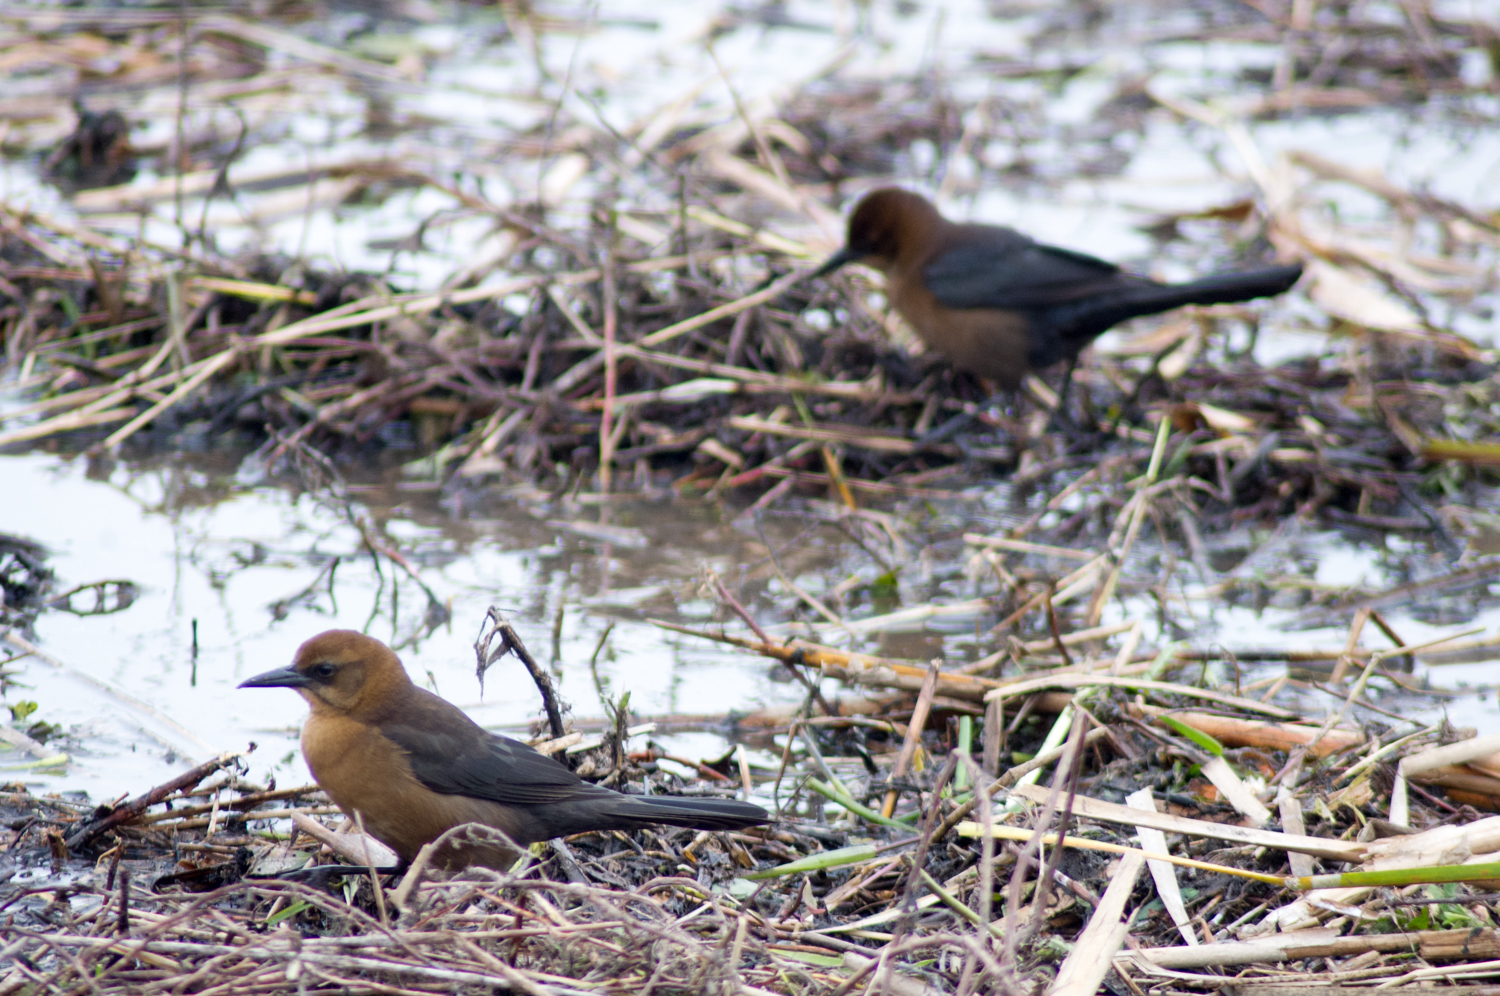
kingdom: Animalia
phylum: Chordata
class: Aves
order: Passeriformes
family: Icteridae
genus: Quiscalus
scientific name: Quiscalus major
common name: Boat-tailed grackle
